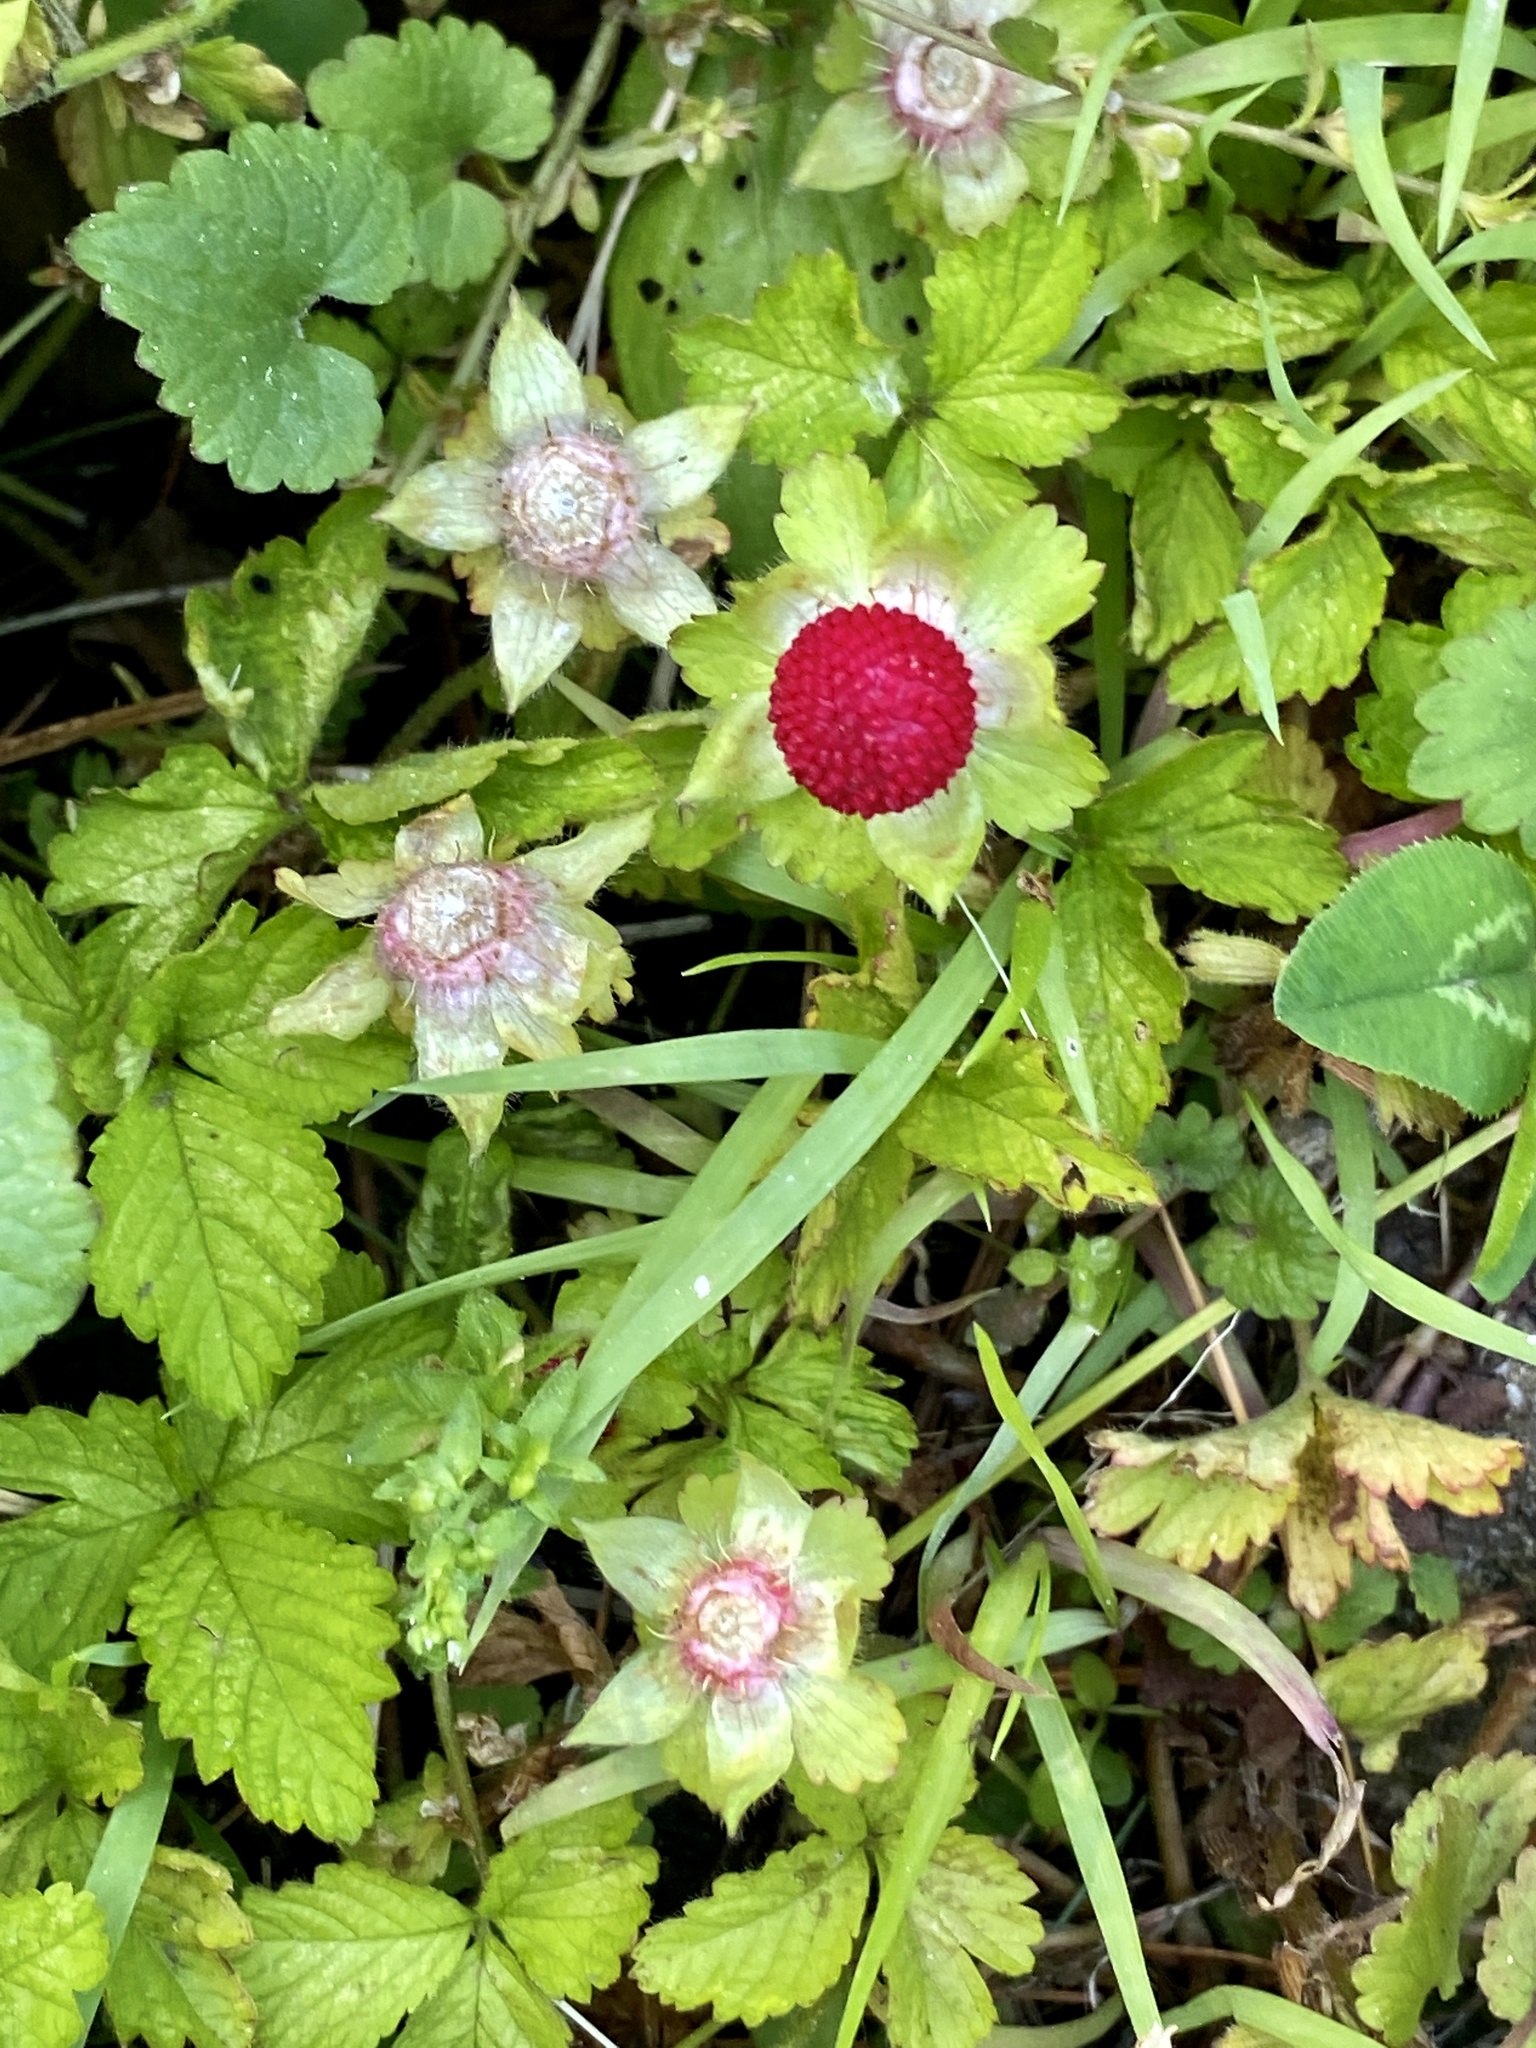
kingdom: Plantae
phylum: Tracheophyta
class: Magnoliopsida
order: Rosales
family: Rosaceae
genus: Potentilla
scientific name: Potentilla indica
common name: Yellow-flowered strawberry
